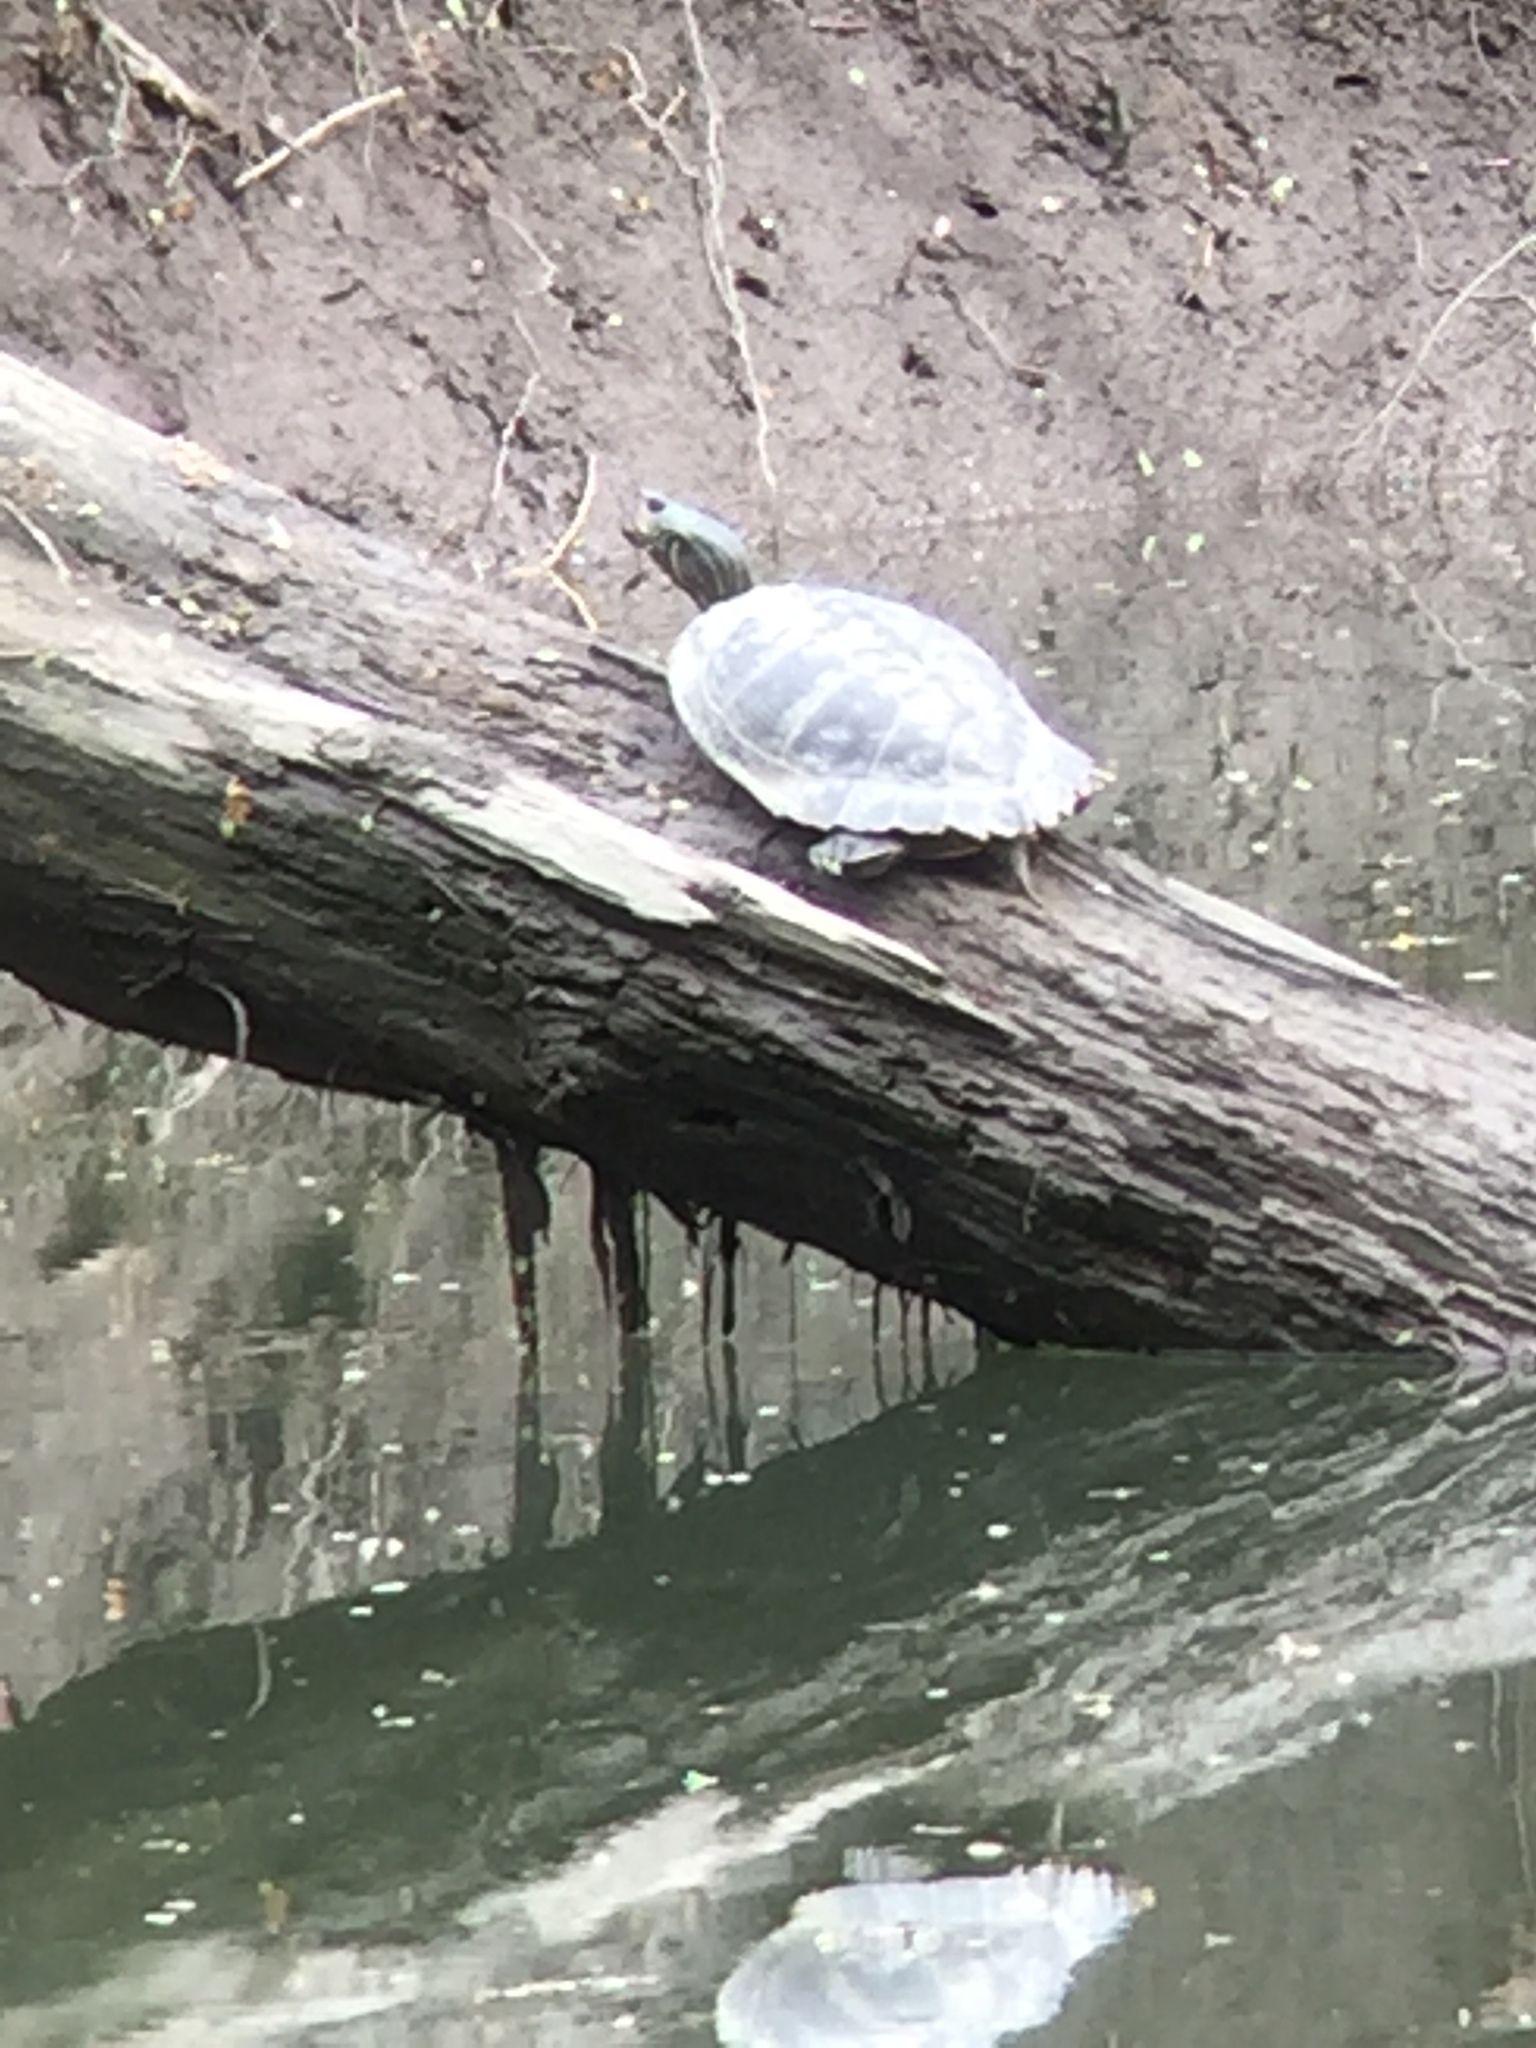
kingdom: Animalia
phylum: Chordata
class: Testudines
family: Emydidae
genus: Graptemys
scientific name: Graptemys geographica
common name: Common map turtle
